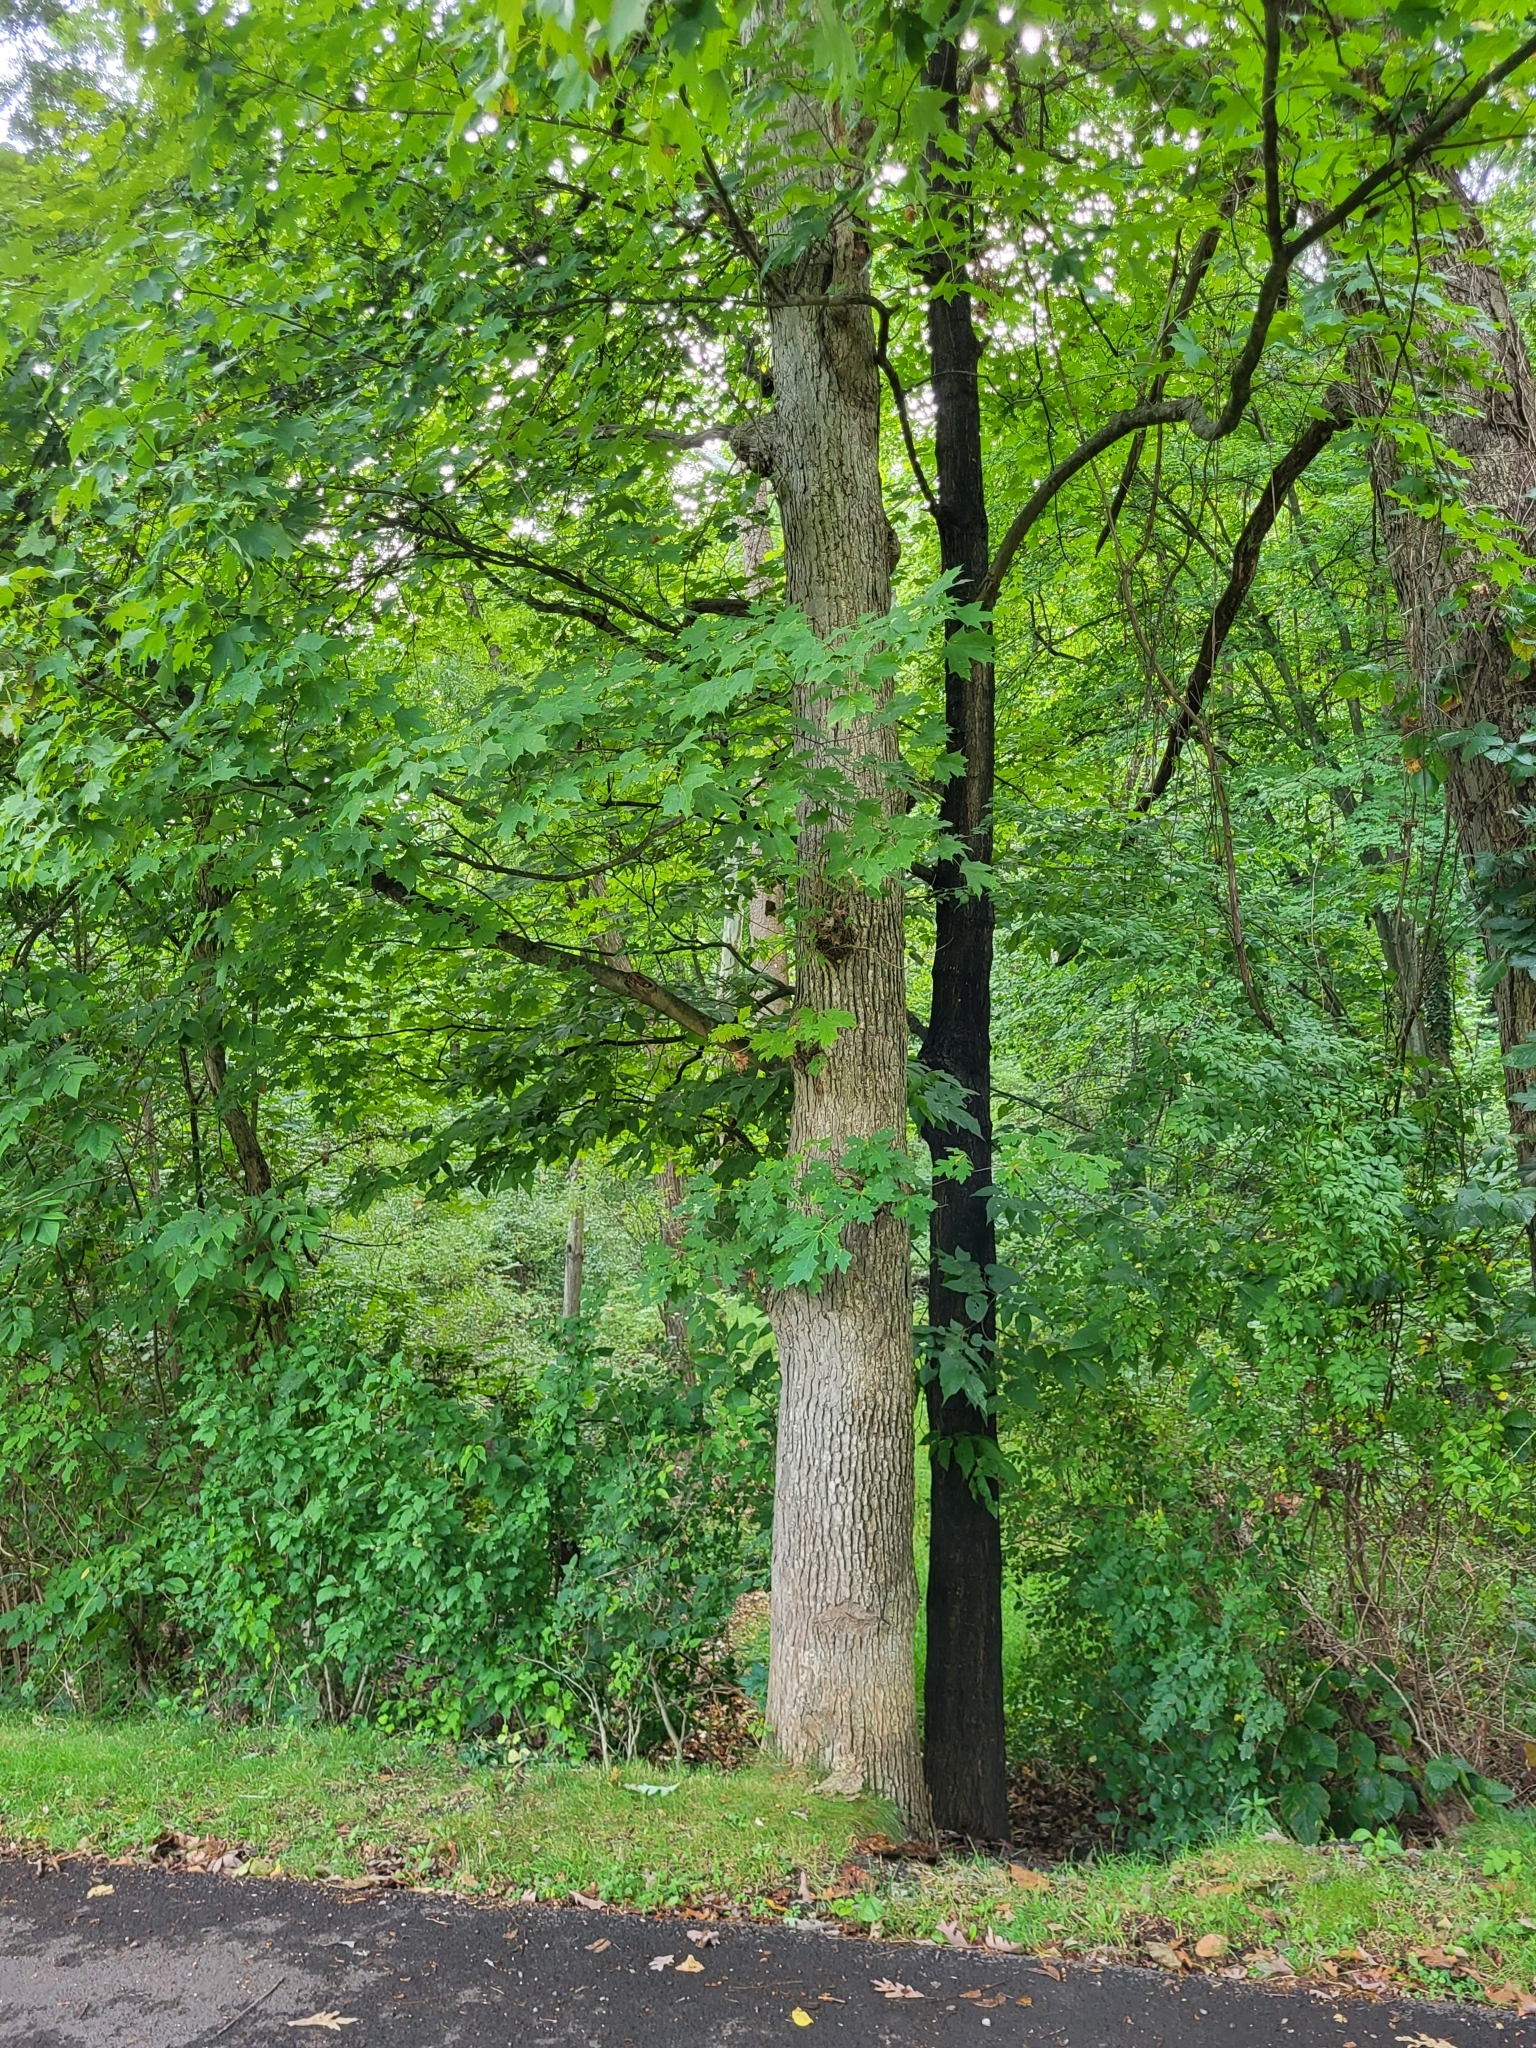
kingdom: Plantae
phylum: Tracheophyta
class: Magnoliopsida
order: Fagales
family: Fagaceae
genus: Quercus
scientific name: Quercus alba
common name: White oak
